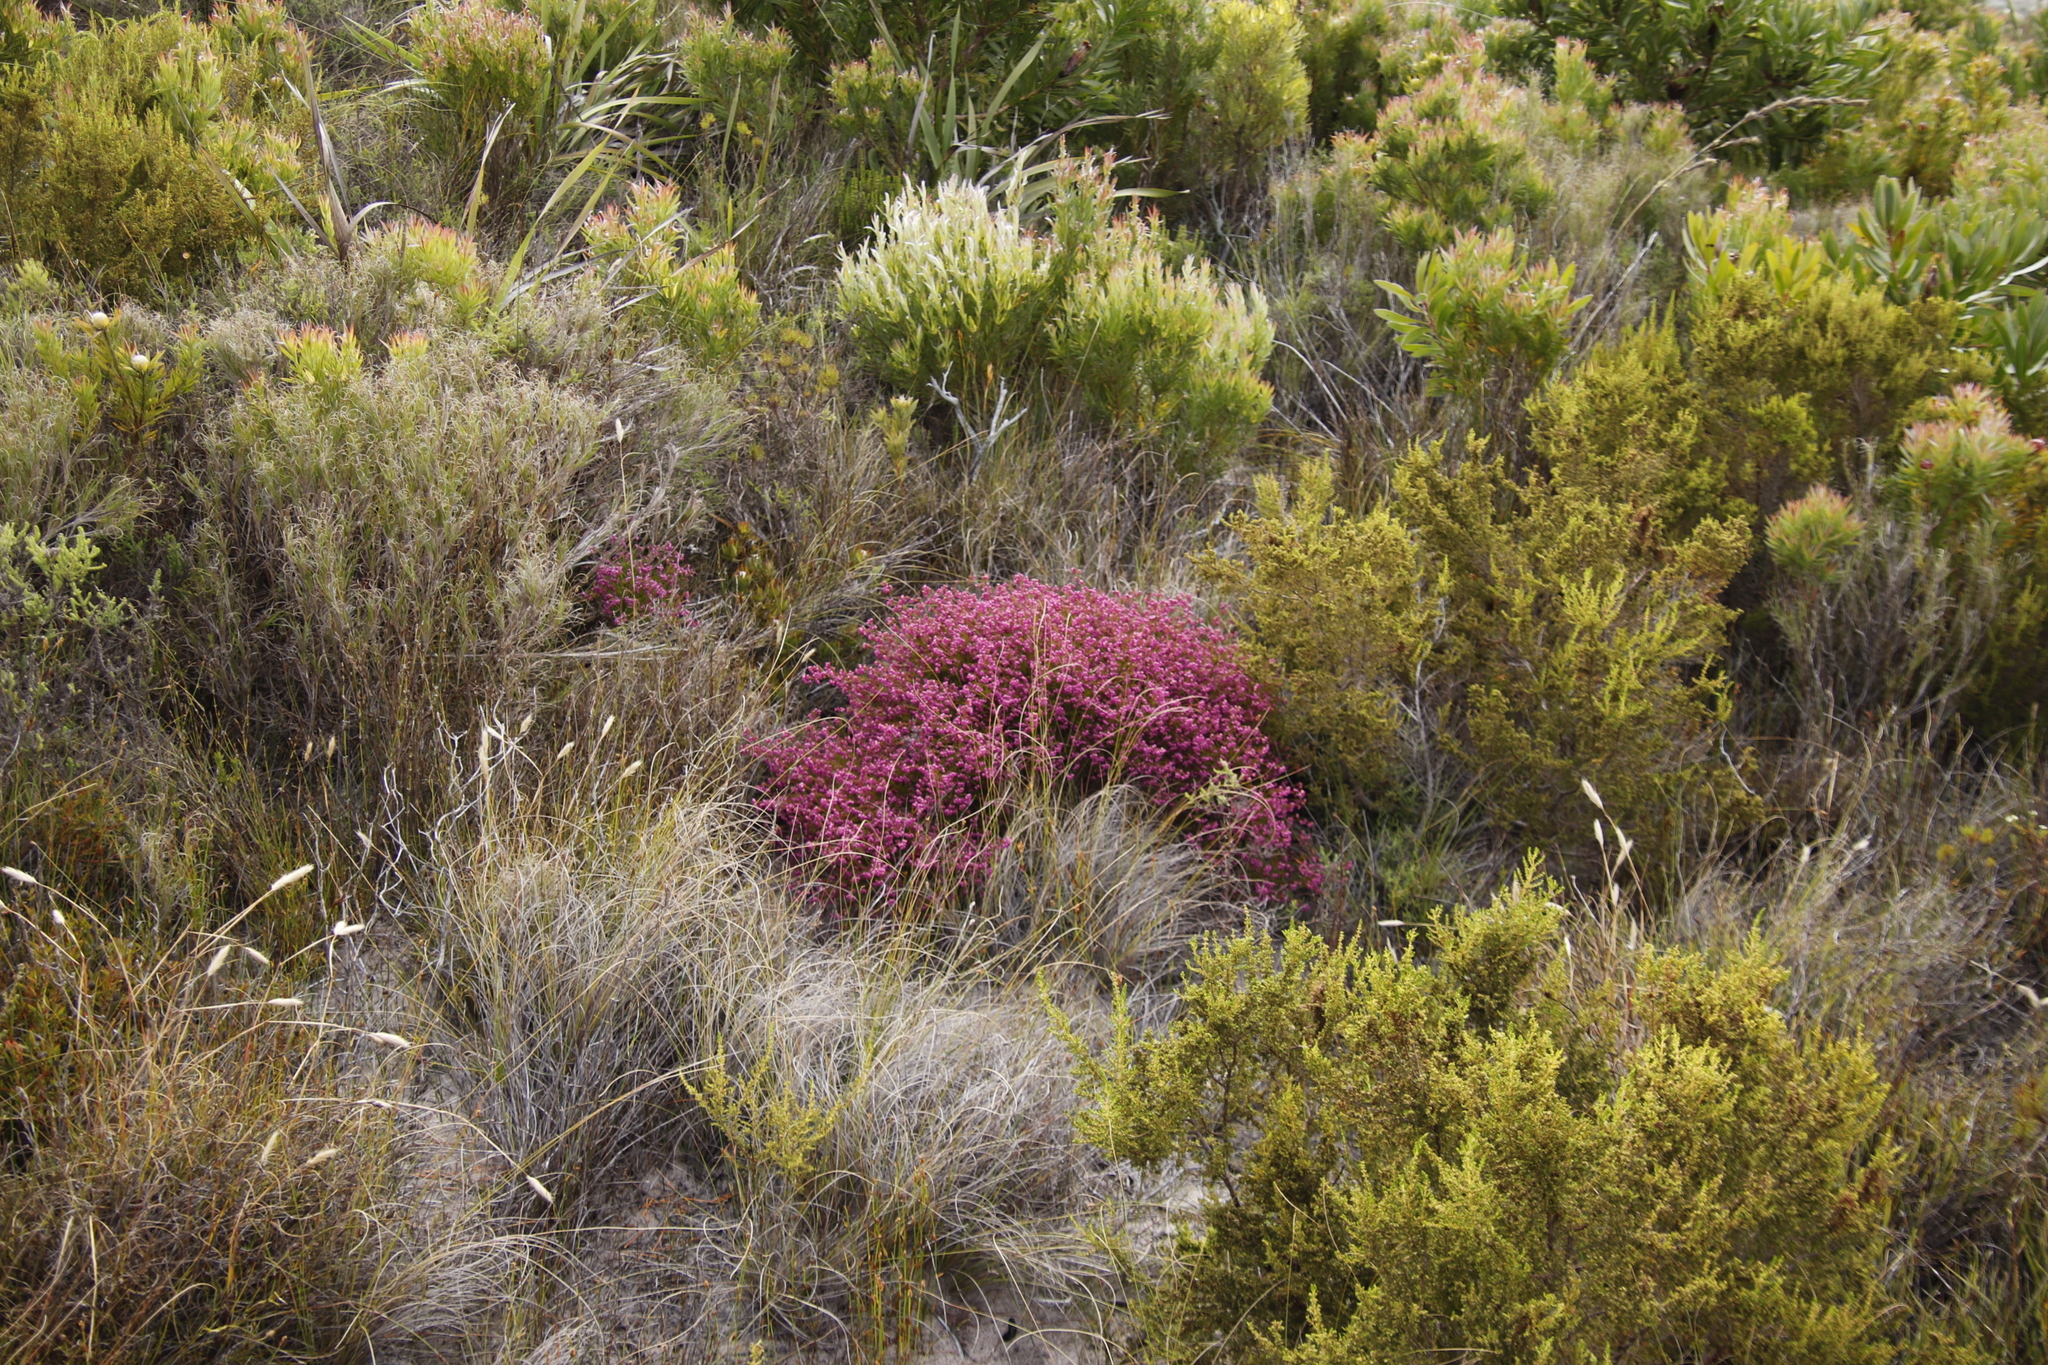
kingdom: Plantae
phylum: Tracheophyta
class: Magnoliopsida
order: Ericales
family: Ericaceae
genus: Erica
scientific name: Erica multumbellifera
